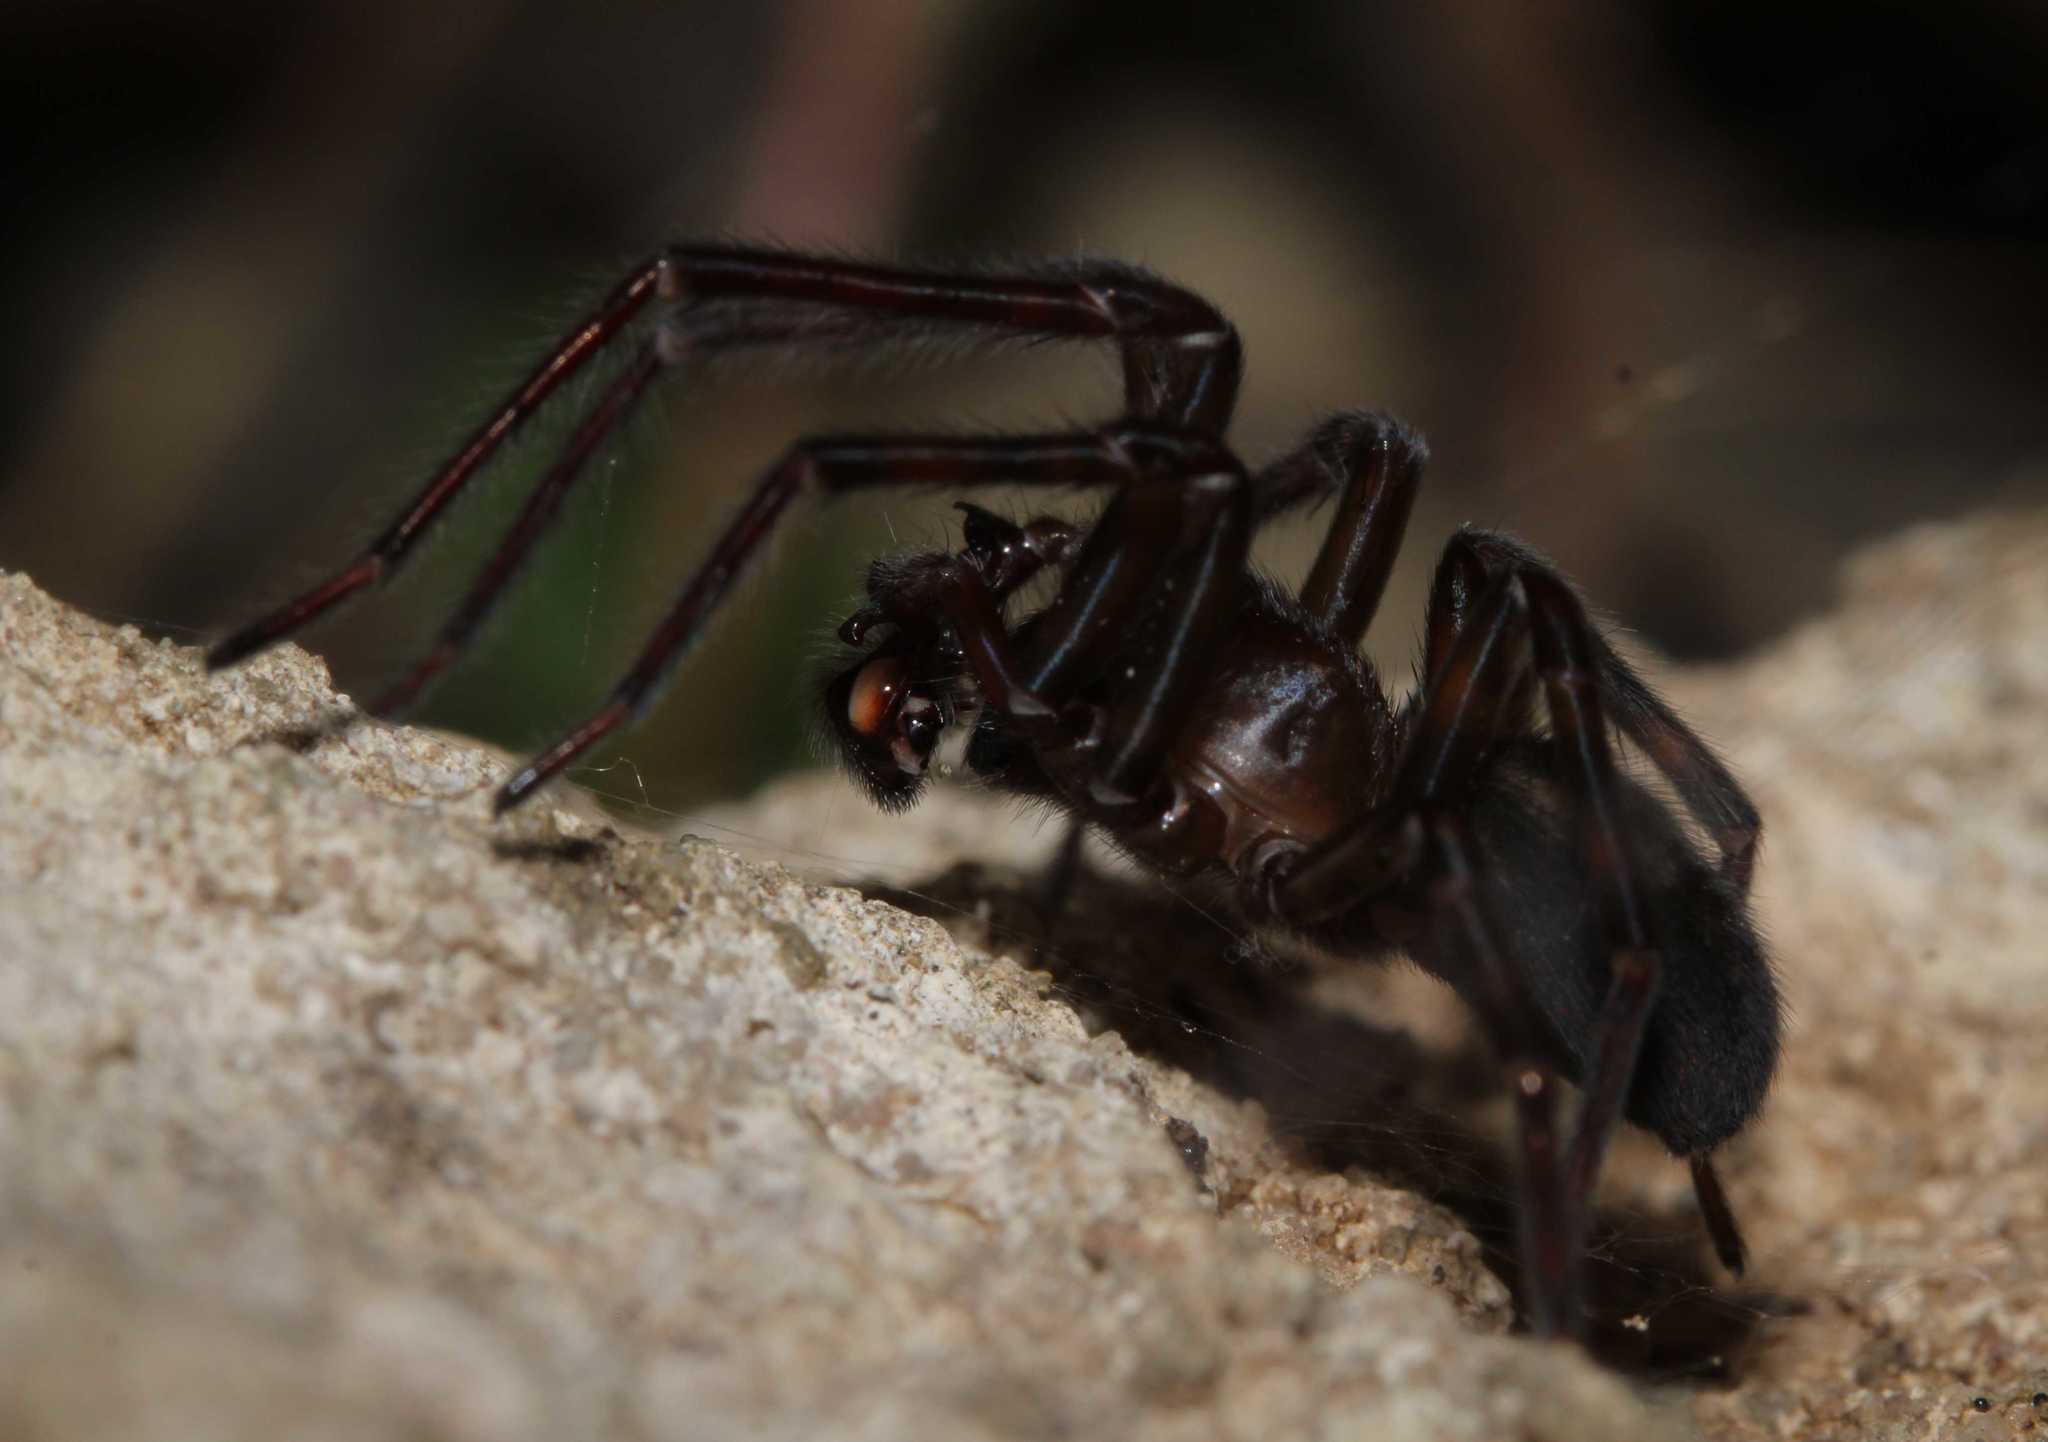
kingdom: Animalia
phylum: Arthropoda
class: Arachnida
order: Araneae
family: Amaurobiidae
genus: Amaurobius
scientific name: Amaurobius ferox
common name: Black laceweaver
